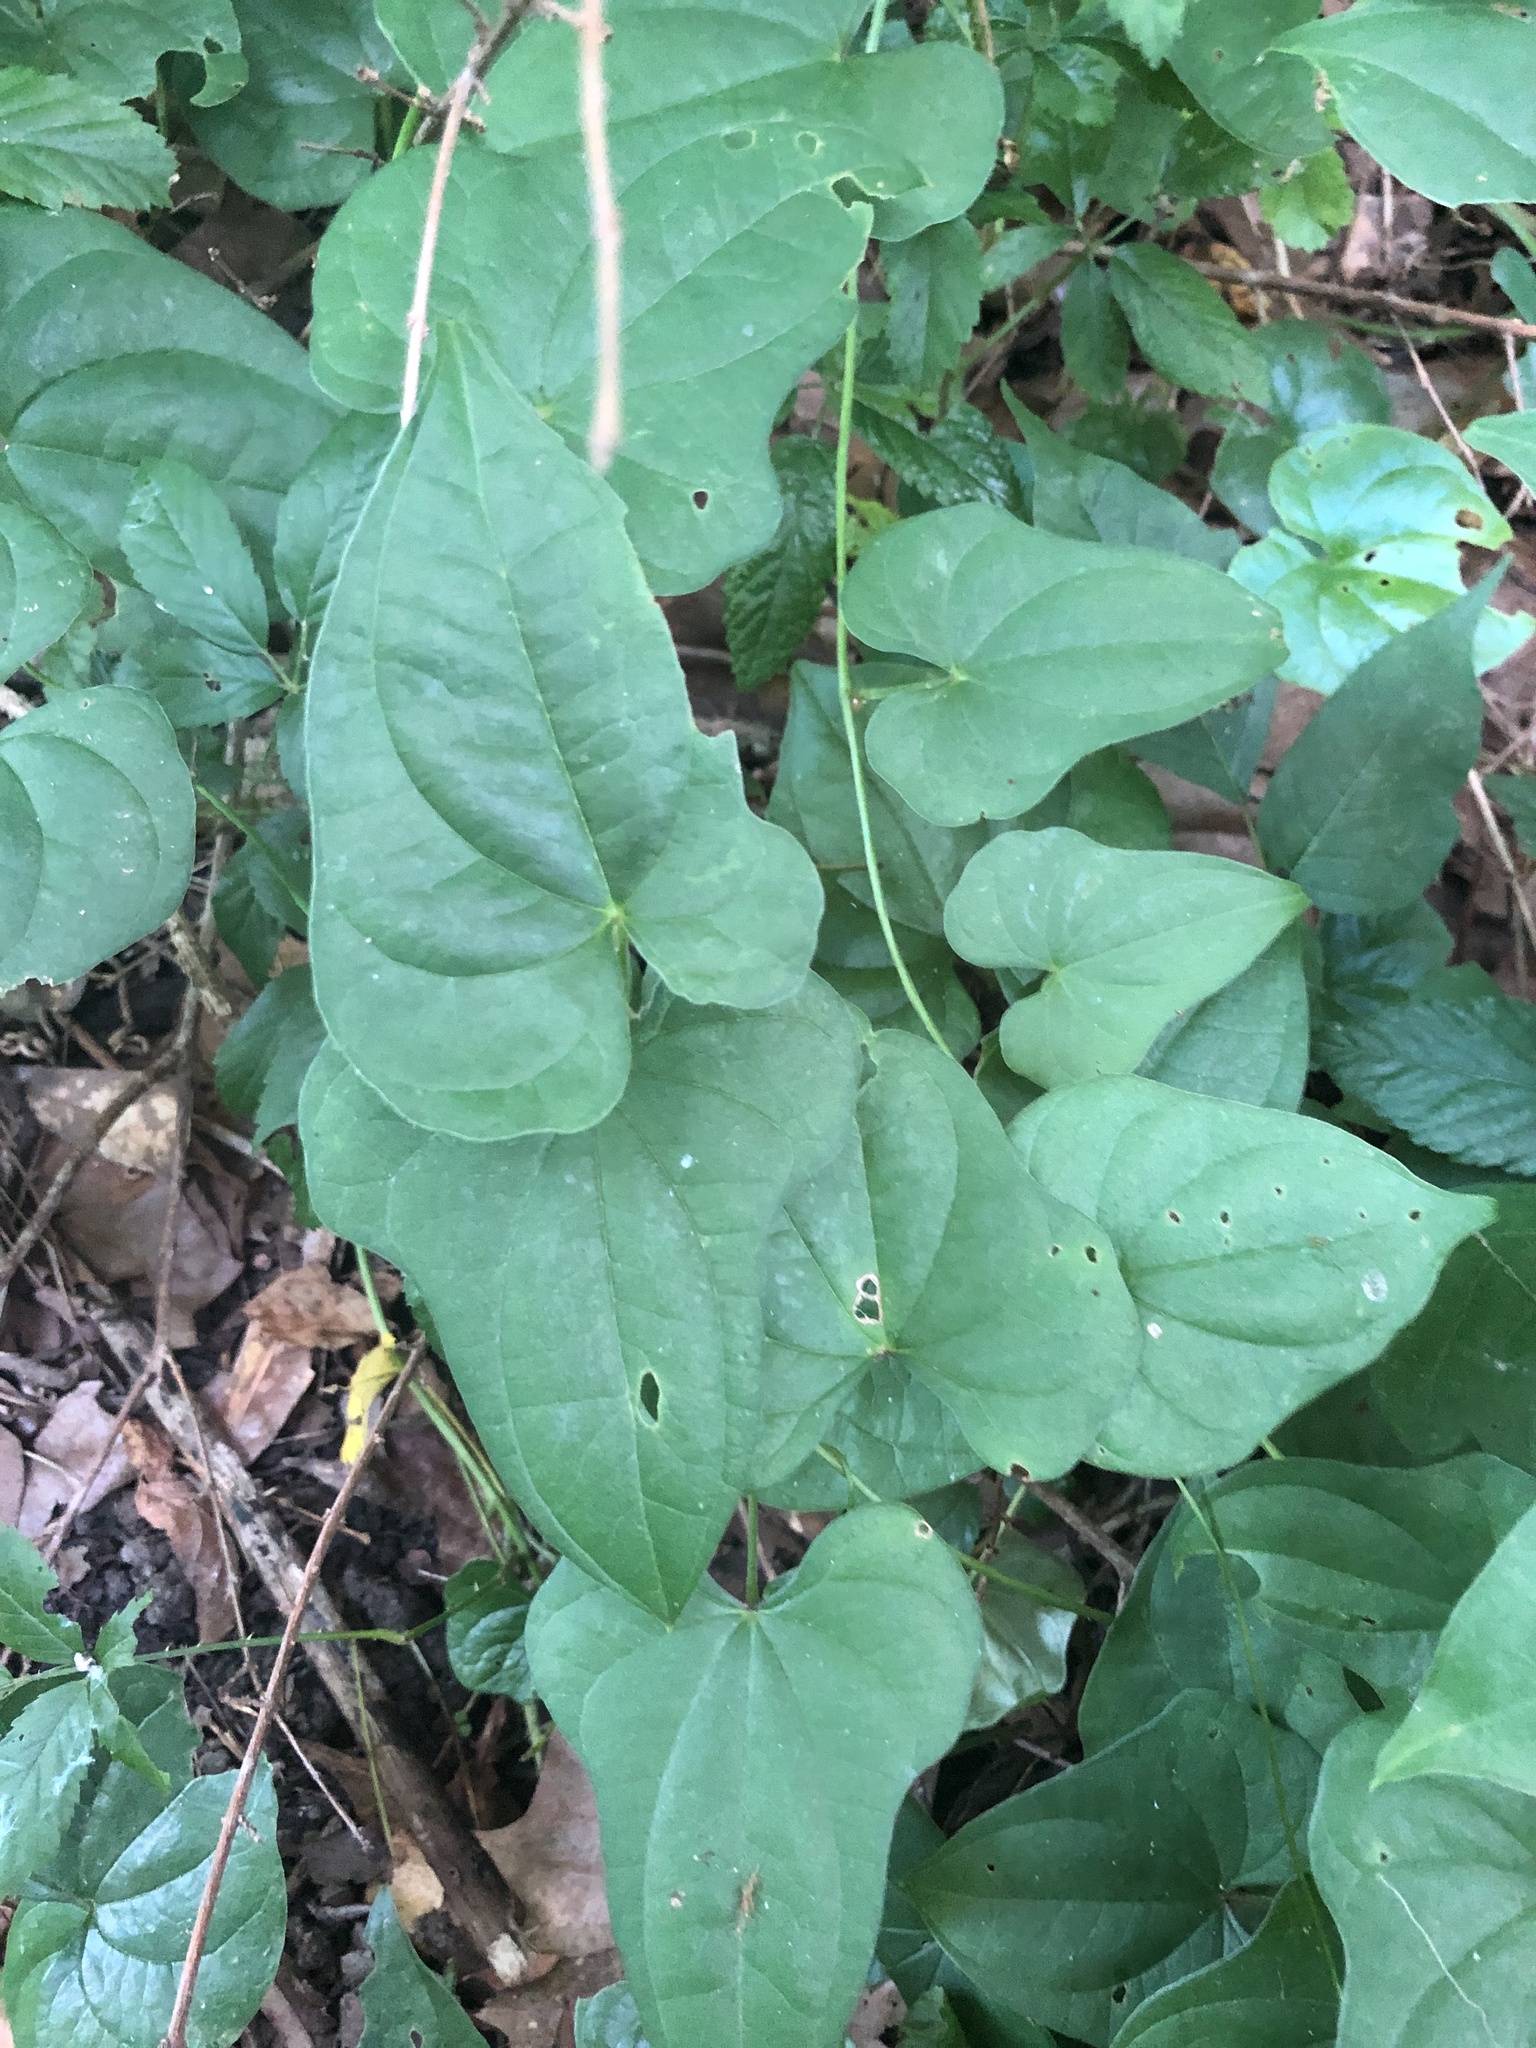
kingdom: Plantae
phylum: Tracheophyta
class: Liliopsida
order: Dioscoreales
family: Dioscoreaceae
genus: Dioscorea
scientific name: Dioscorea polystachya
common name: Chinese yam
